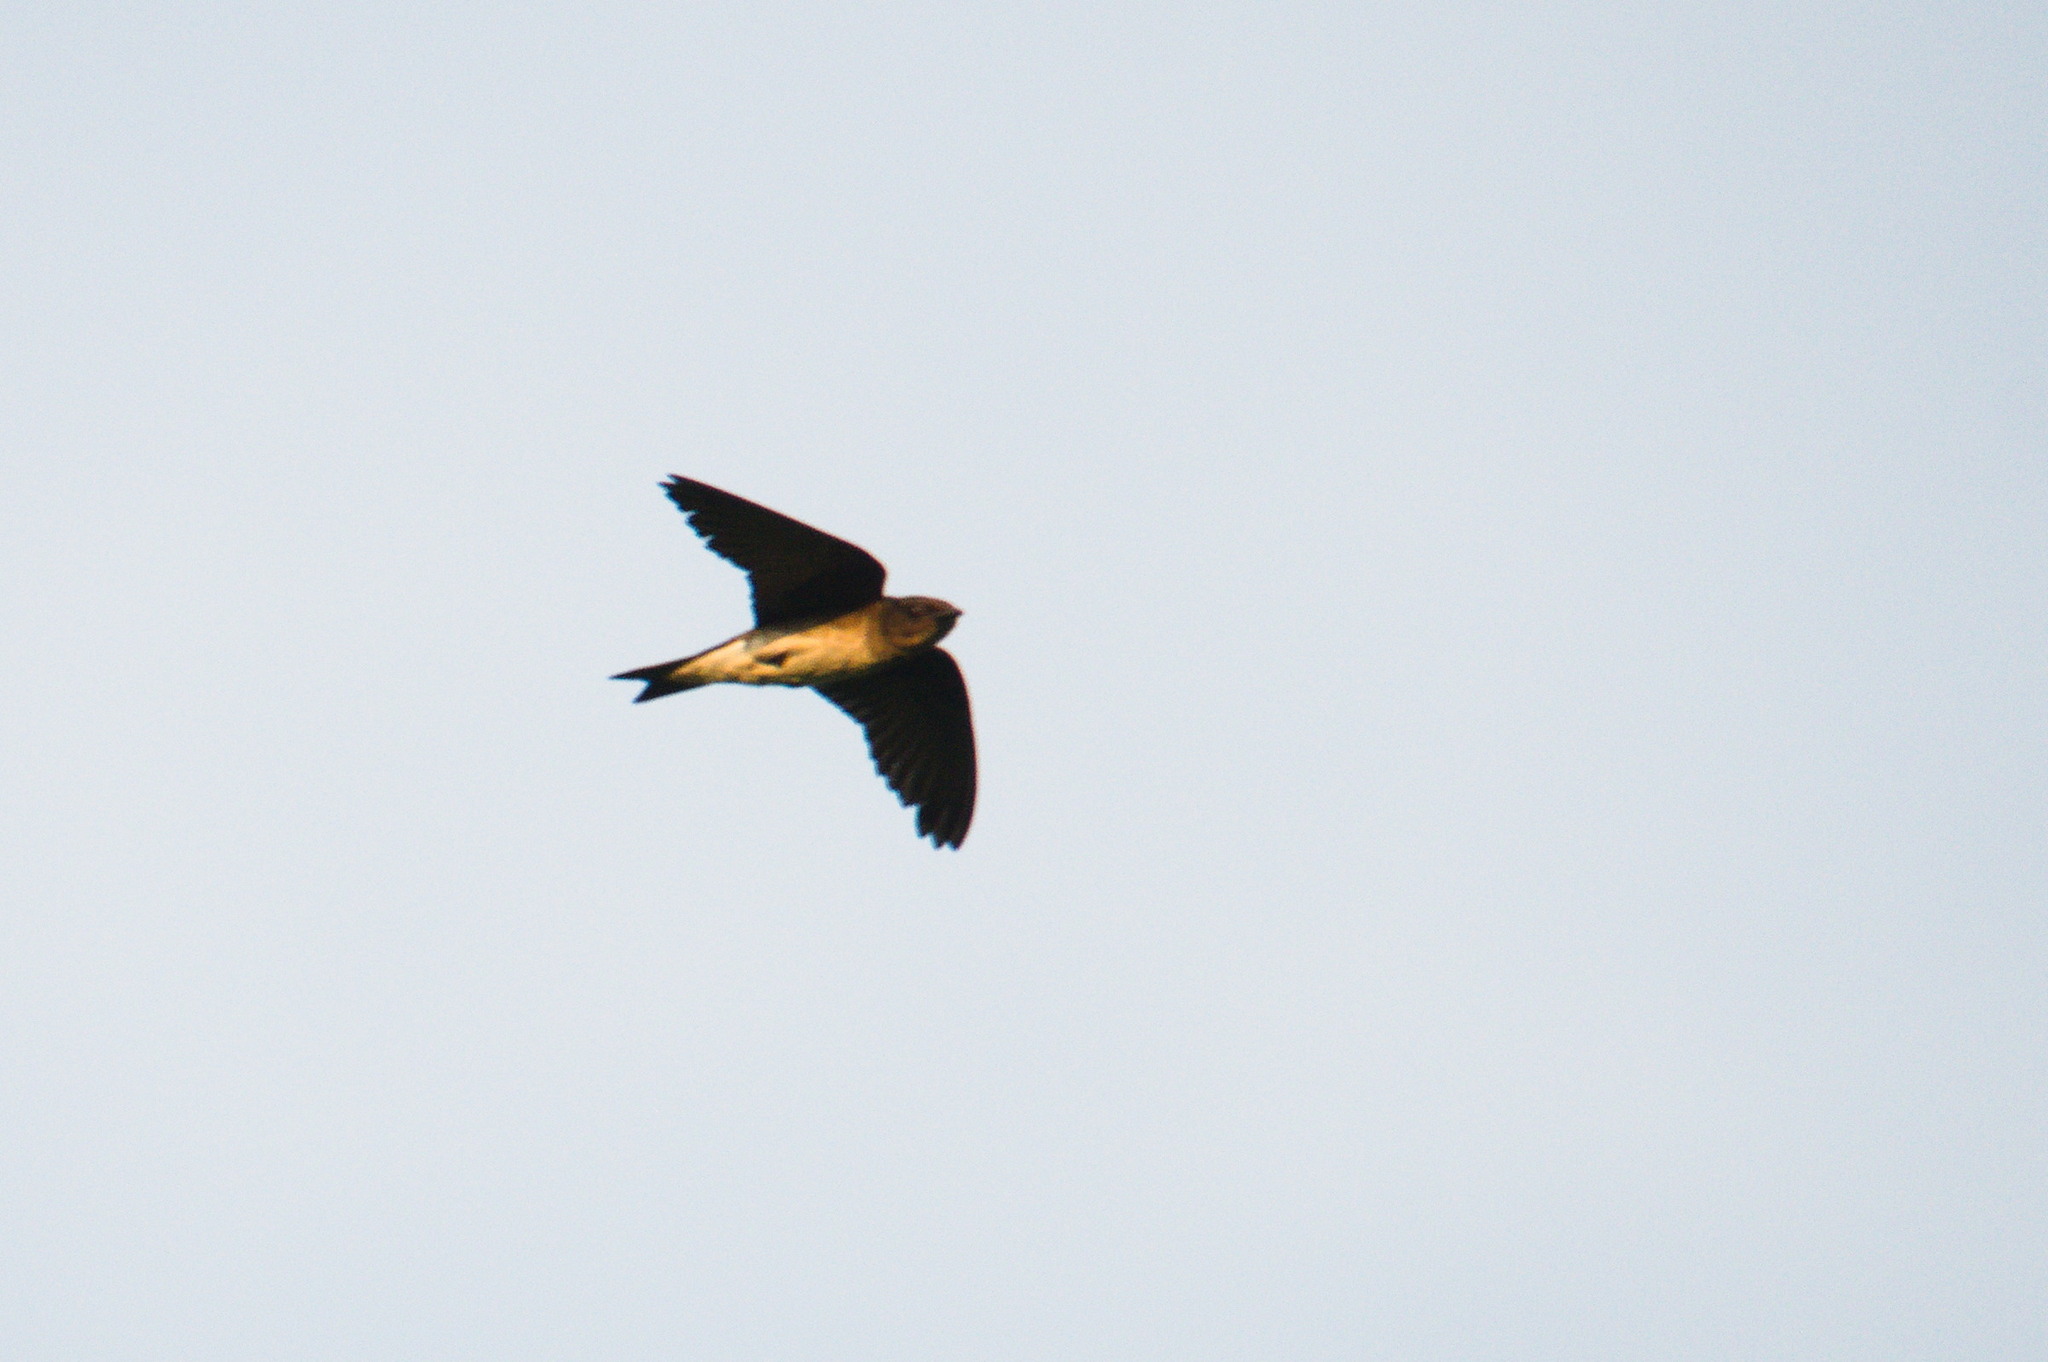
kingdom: Animalia
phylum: Chordata
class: Aves
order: Passeriformes
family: Hirundinidae
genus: Progne
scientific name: Progne chalybea
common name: Grey-breasted martin
